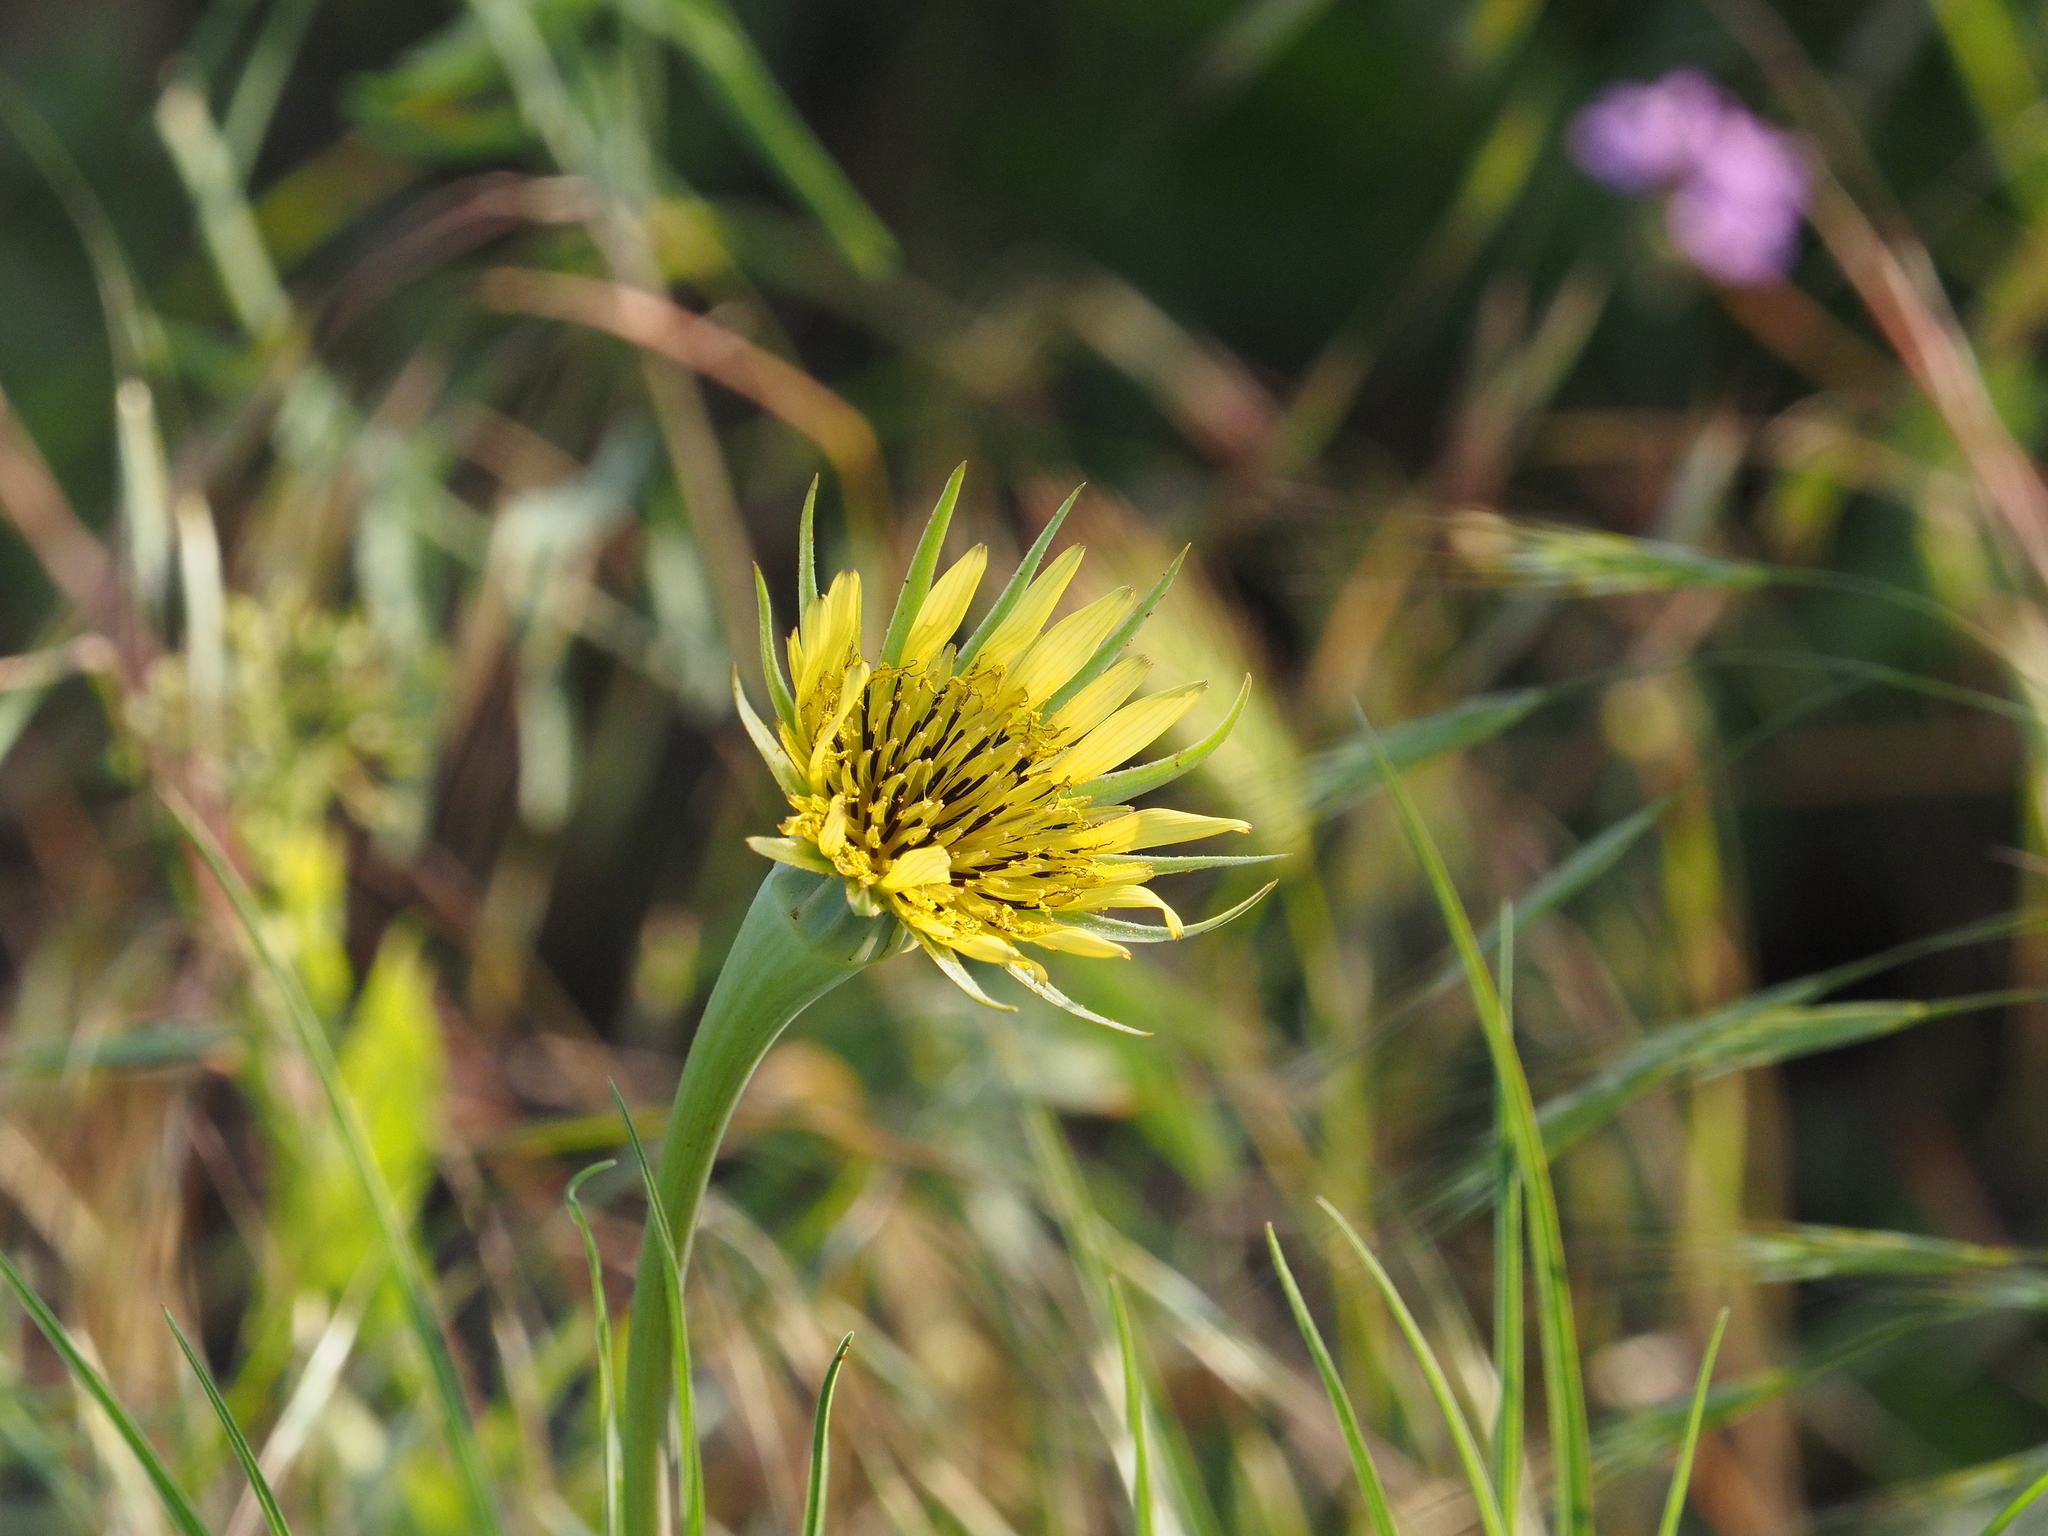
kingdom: Plantae
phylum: Tracheophyta
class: Magnoliopsida
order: Asterales
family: Asteraceae
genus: Tragopogon
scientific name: Tragopogon dubius
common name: Yellow salsify
